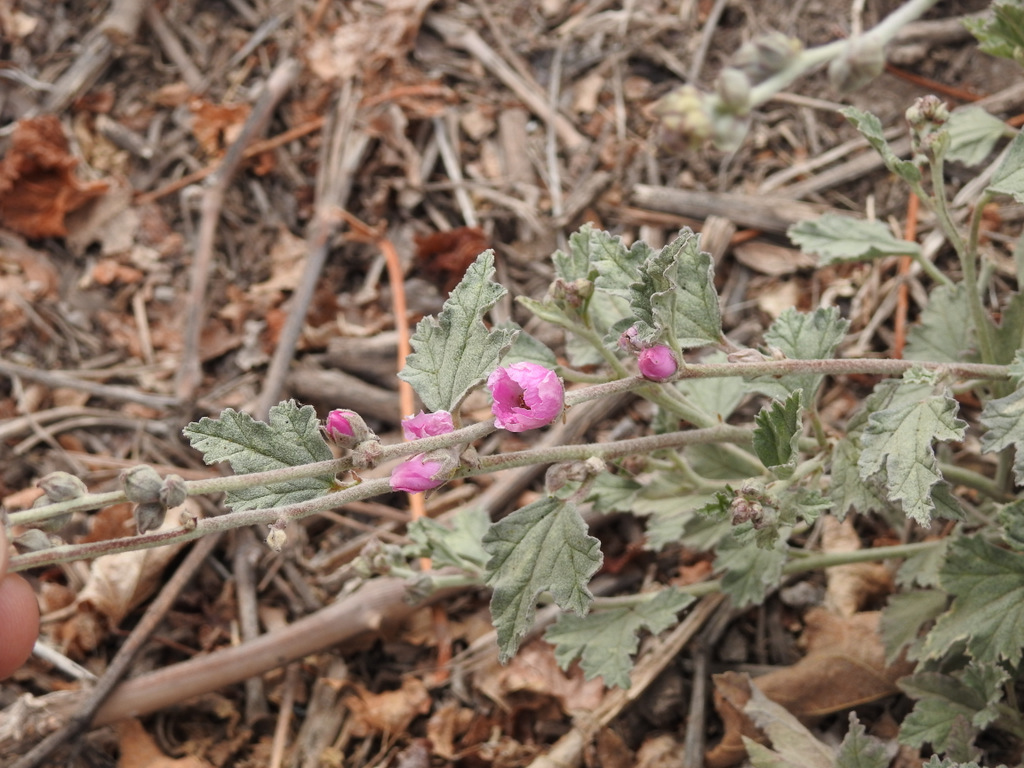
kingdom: Plantae
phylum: Tracheophyta
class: Magnoliopsida
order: Malvales
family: Malvaceae
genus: Sphaeralcea
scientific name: Sphaeralcea mendocina
